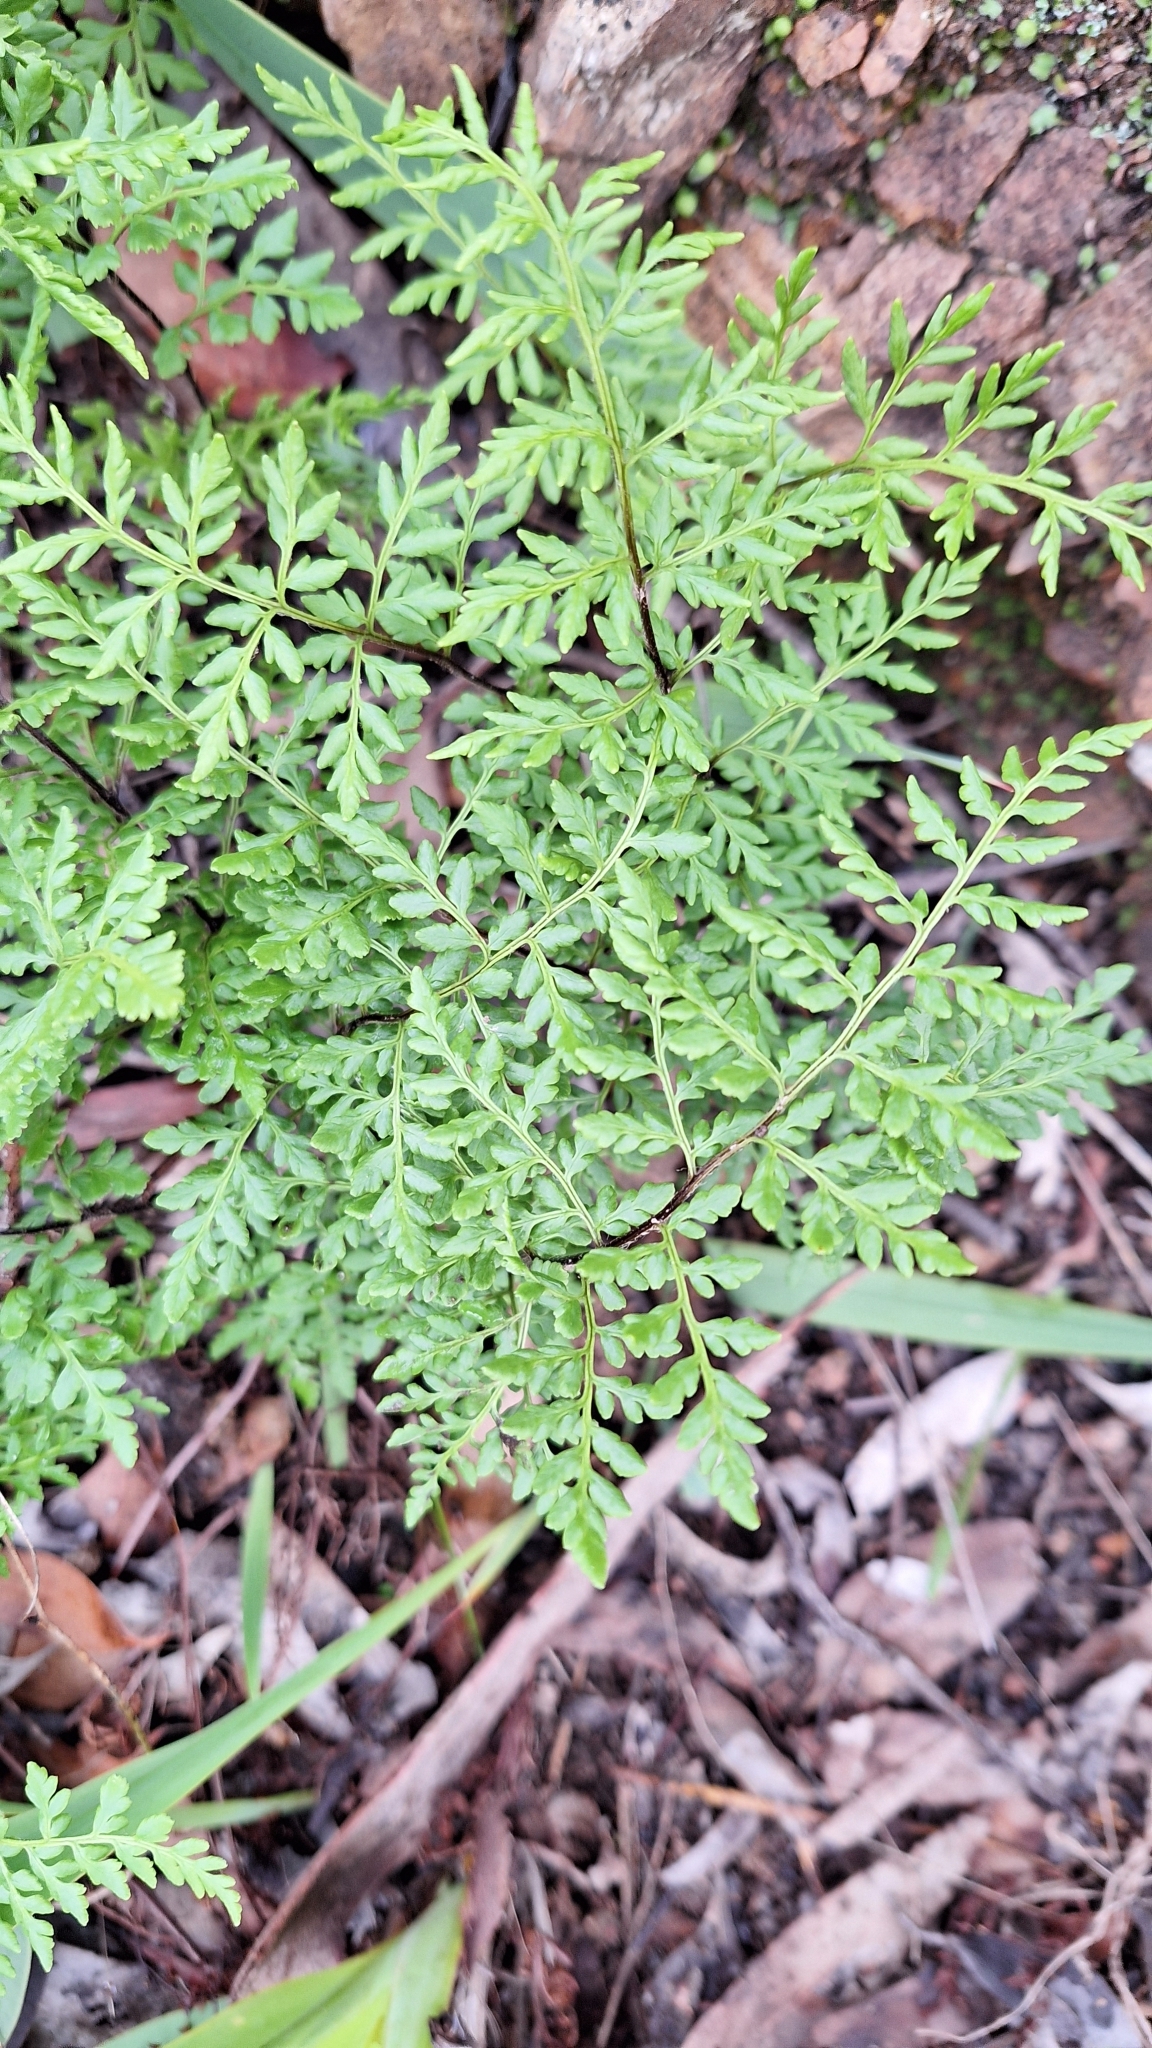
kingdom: Plantae
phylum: Tracheophyta
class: Polypodiopsida
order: Polypodiales
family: Pteridaceae
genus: Cheilanthes
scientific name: Cheilanthes austrotenuifolia
